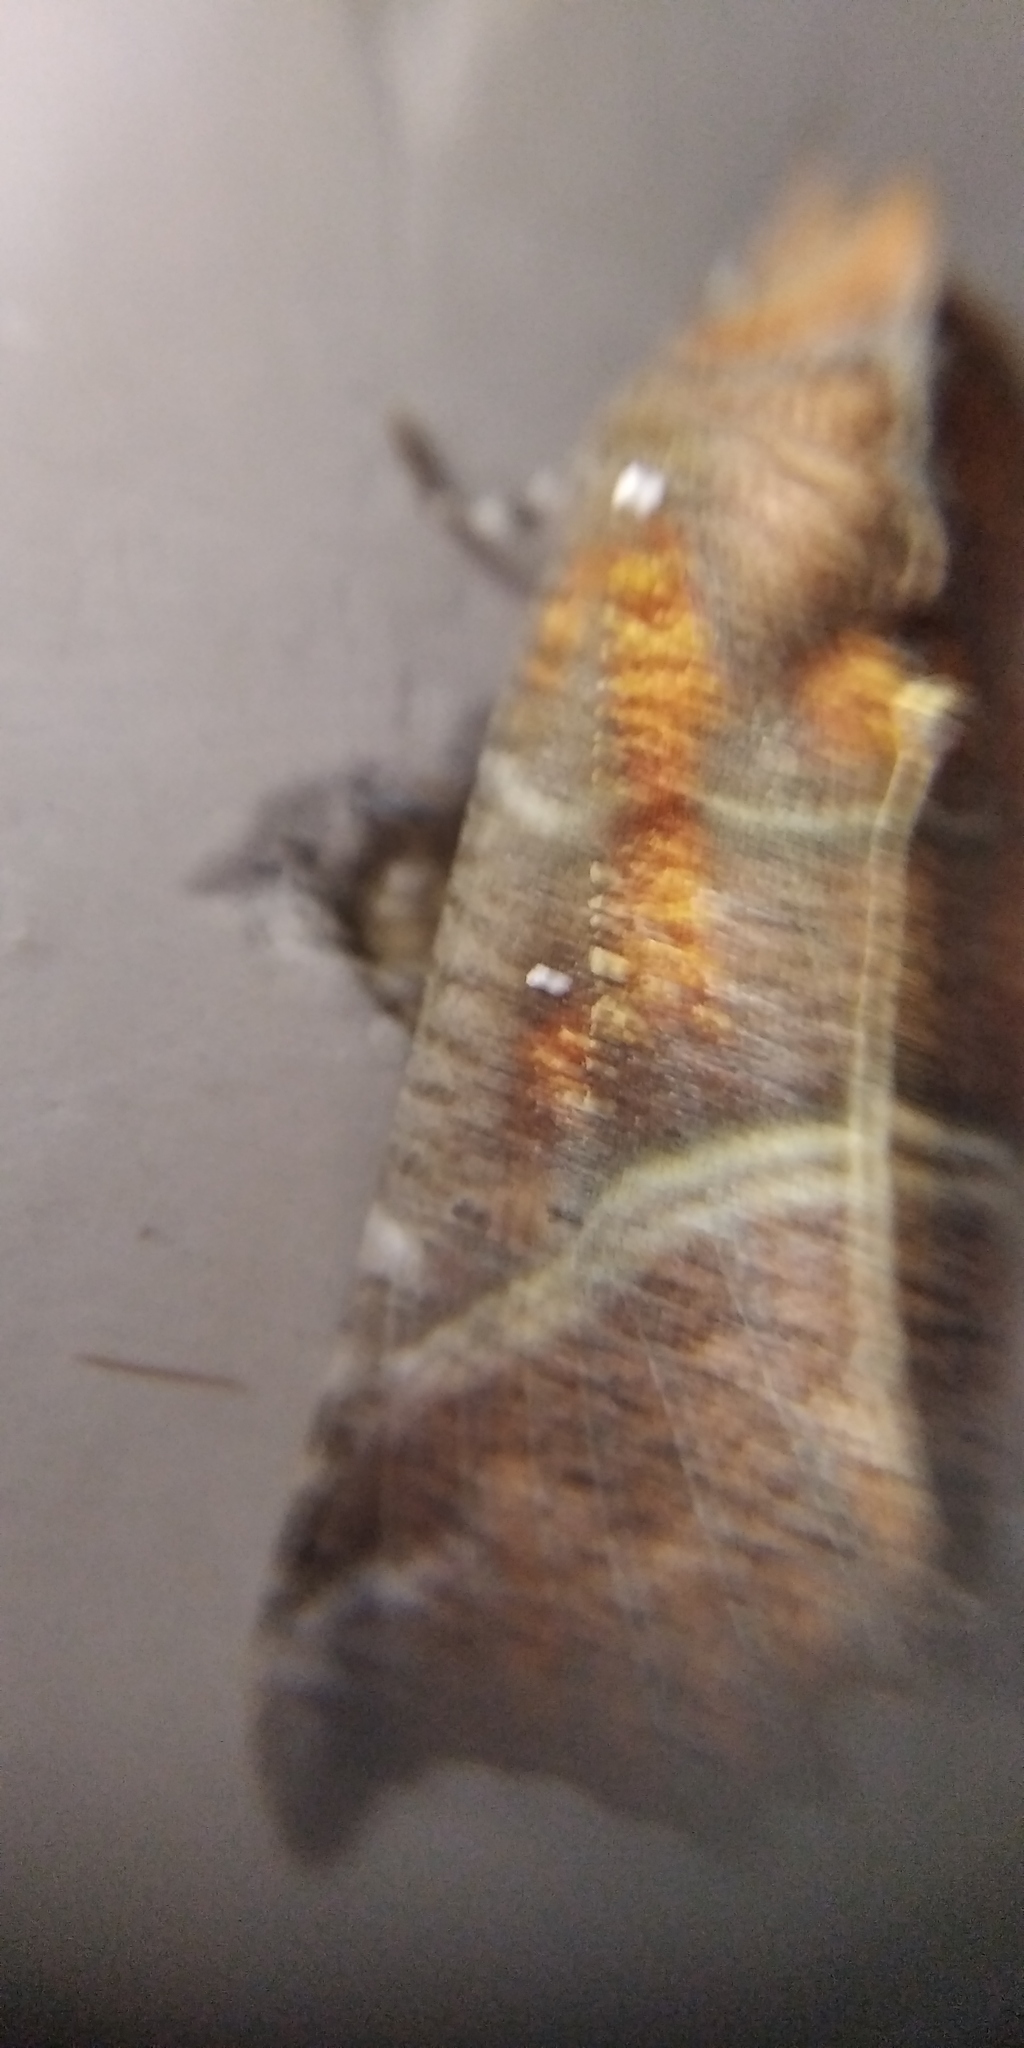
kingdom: Animalia
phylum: Arthropoda
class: Insecta
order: Lepidoptera
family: Erebidae
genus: Scoliopteryx
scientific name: Scoliopteryx libatrix
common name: Herald
